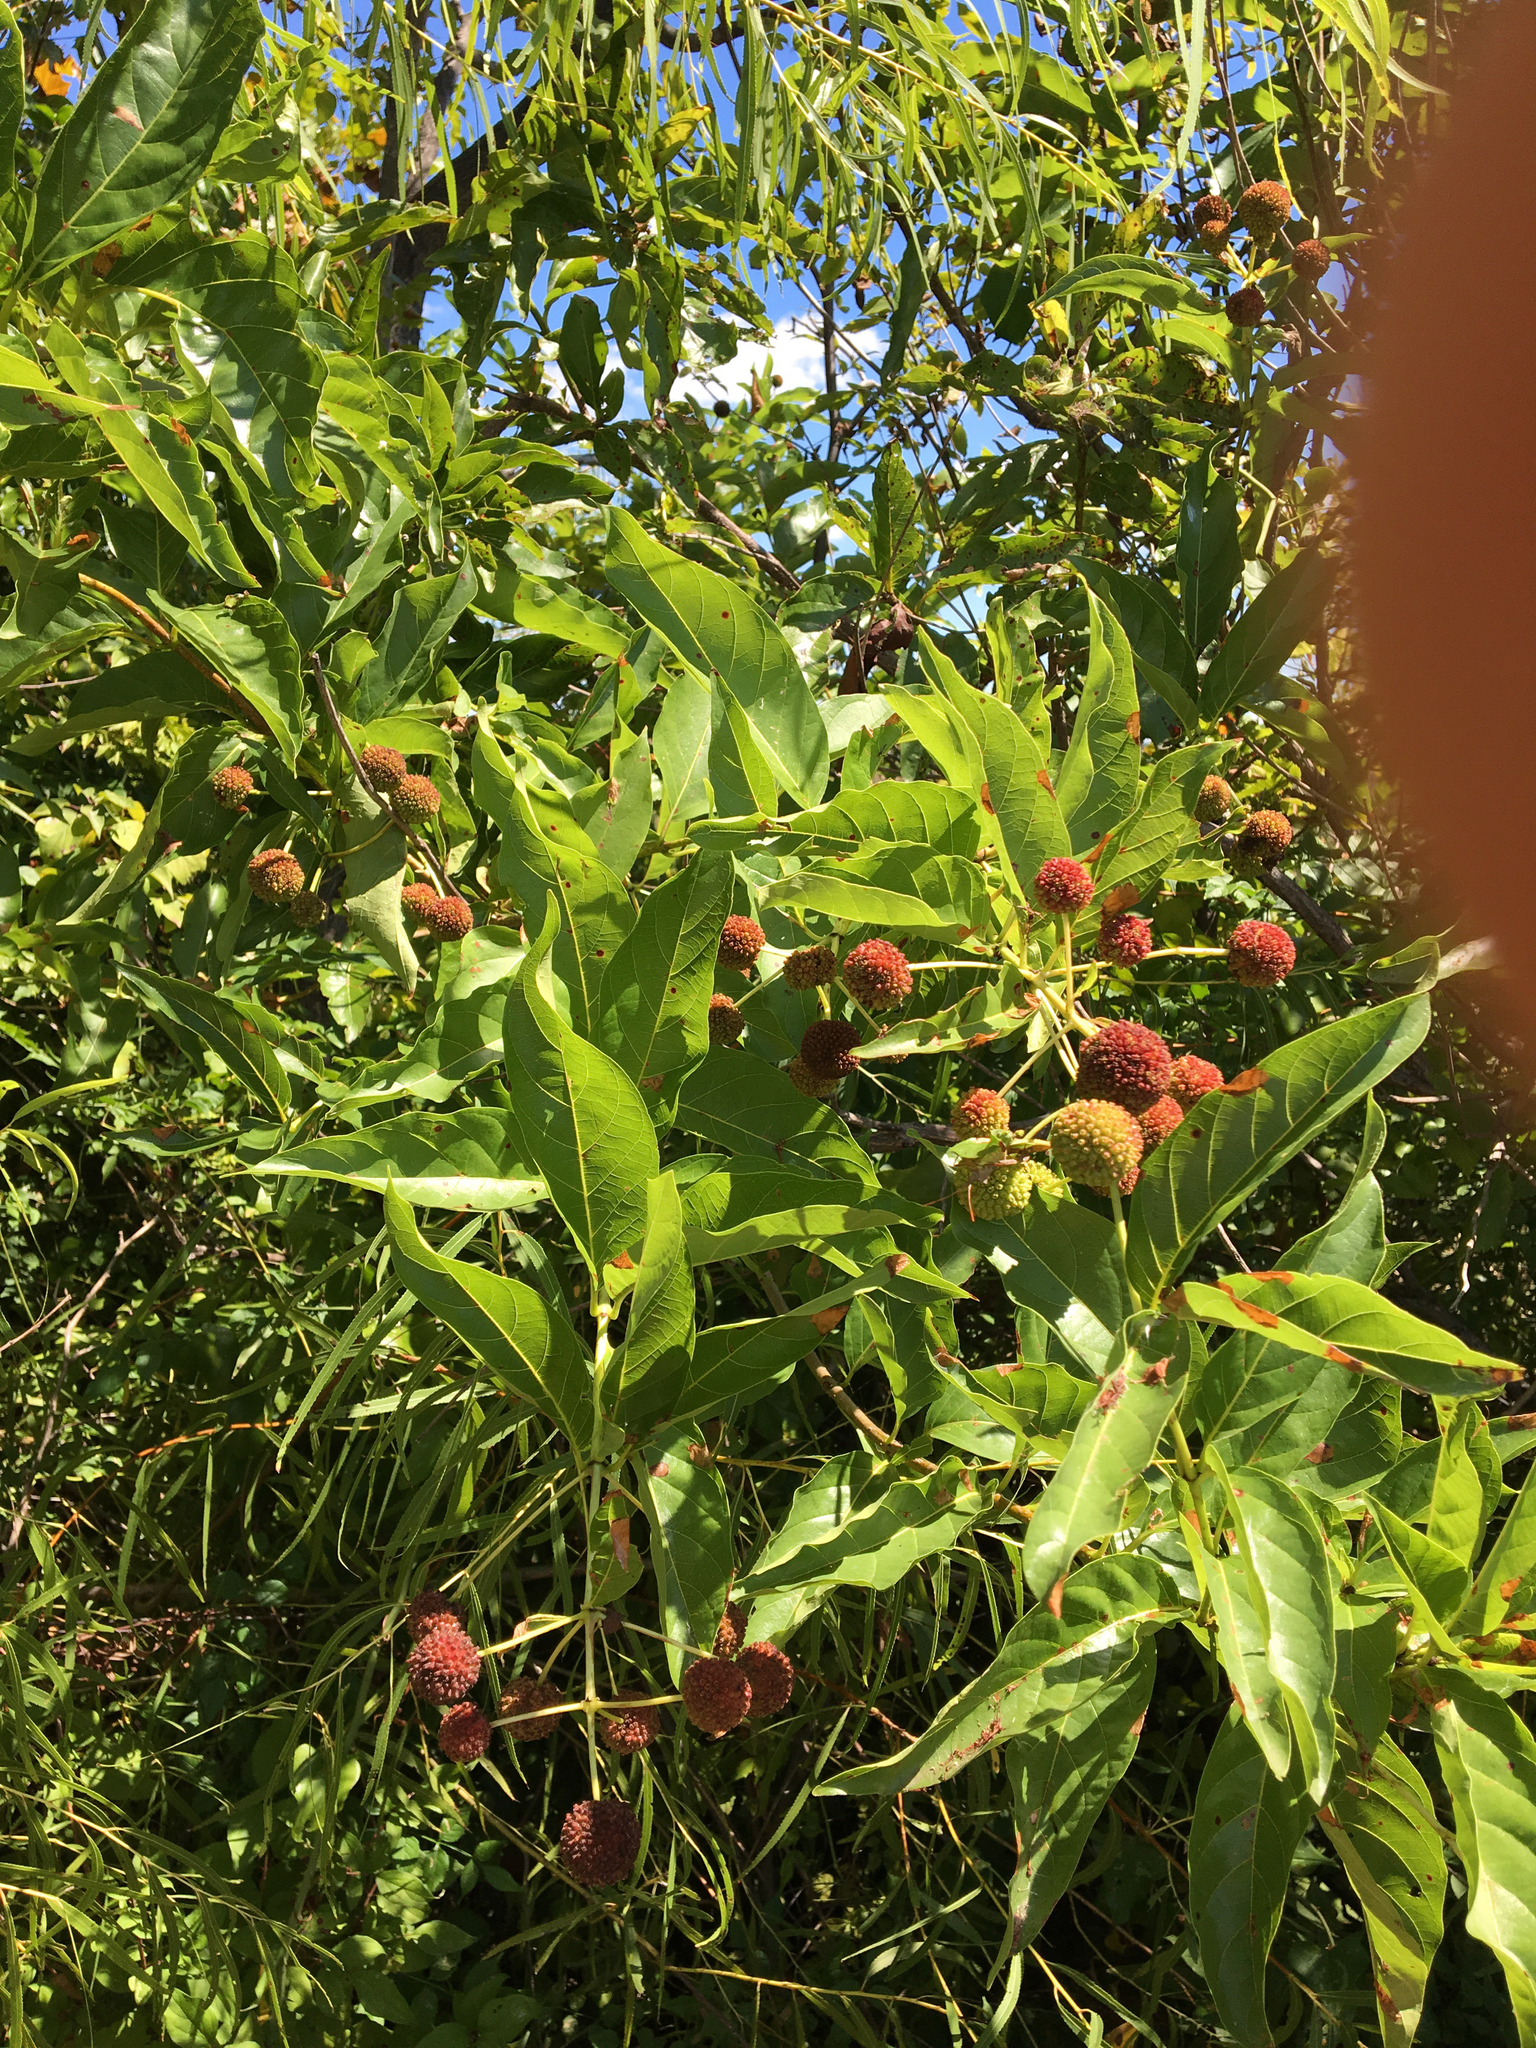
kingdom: Plantae
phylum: Tracheophyta
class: Magnoliopsida
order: Gentianales
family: Rubiaceae
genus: Cephalanthus
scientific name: Cephalanthus occidentalis
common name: Button-willow
